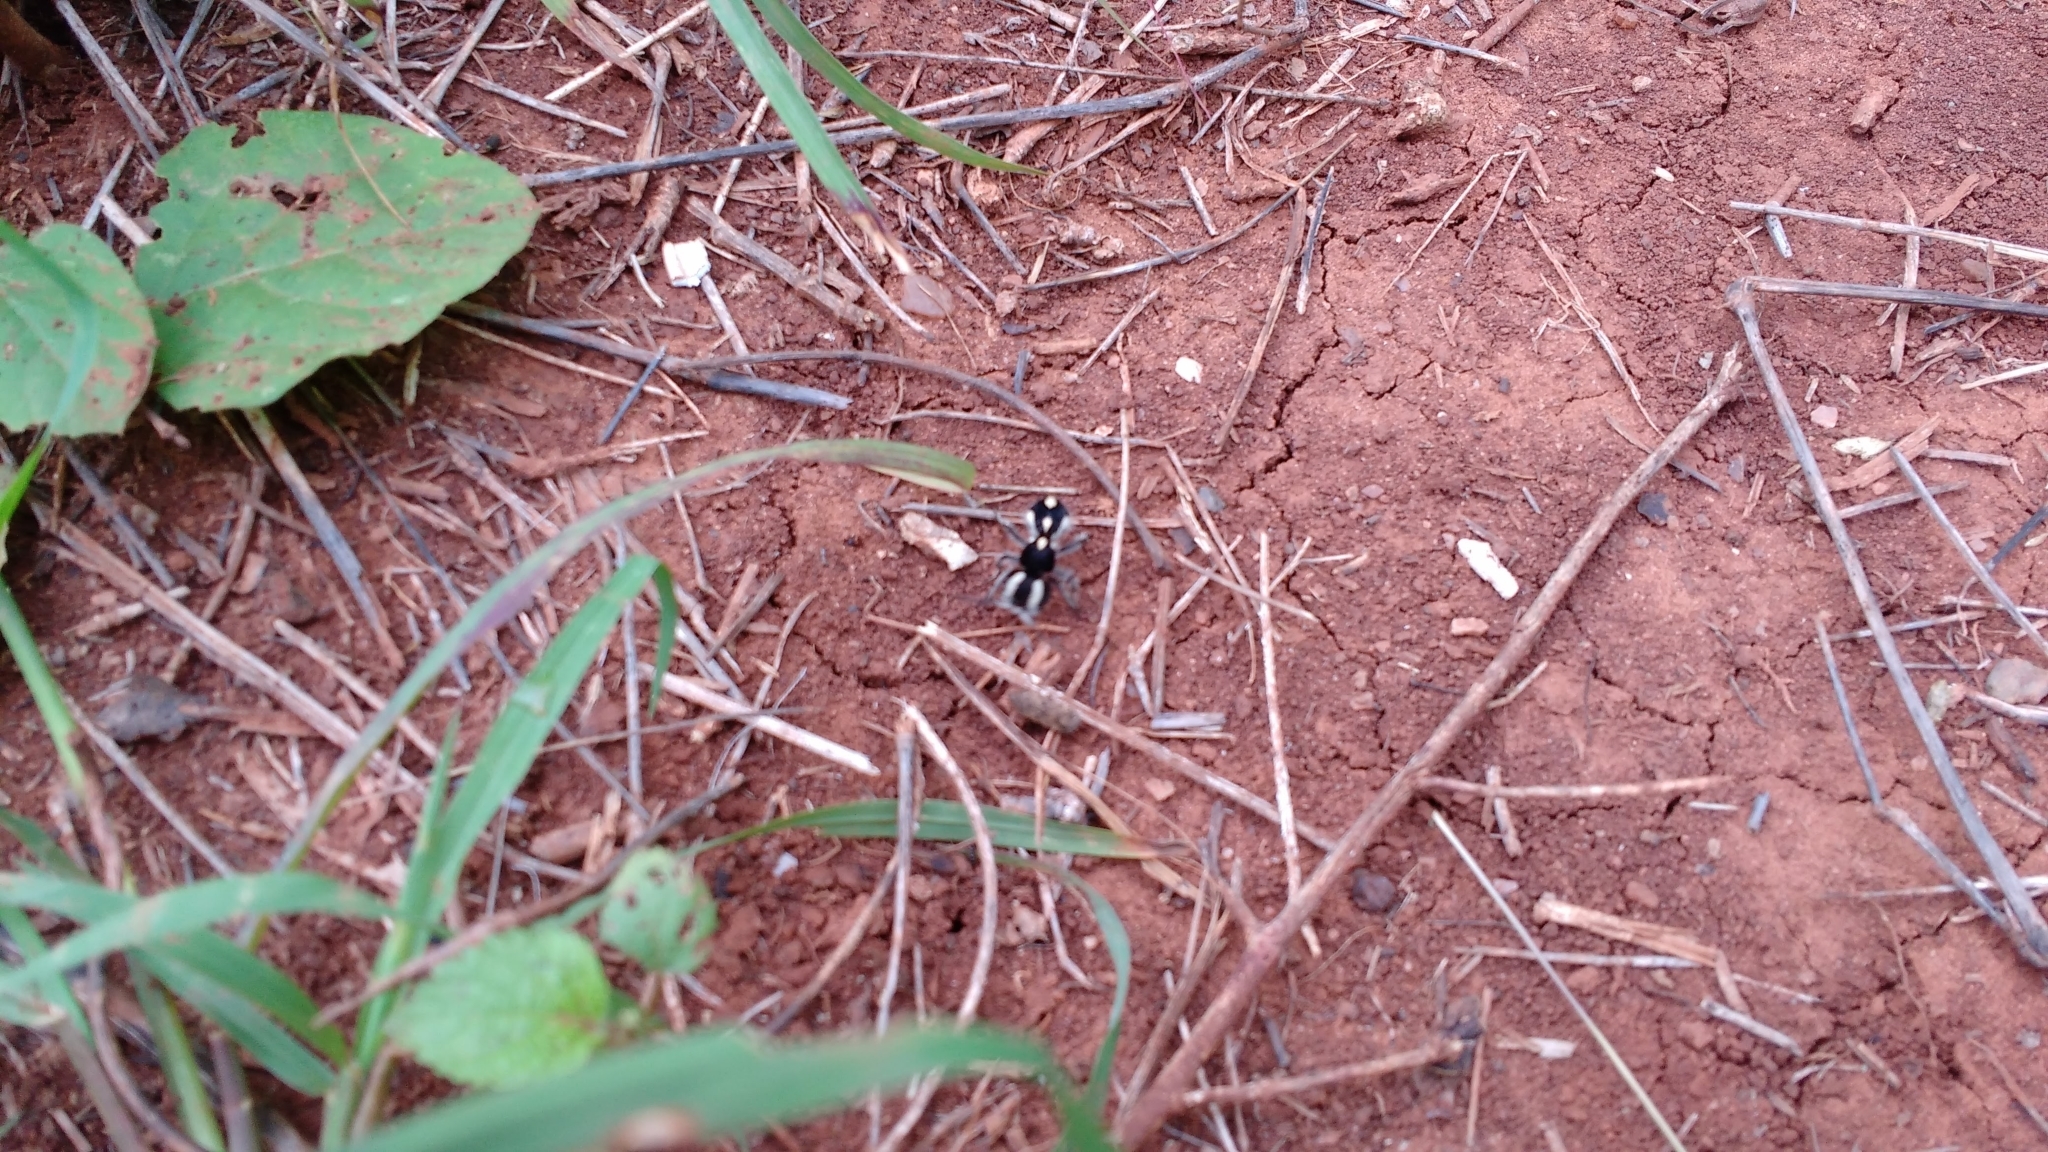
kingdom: Animalia
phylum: Arthropoda
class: Insecta
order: Hymenoptera
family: Mutillidae
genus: Atillum
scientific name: Atillum
